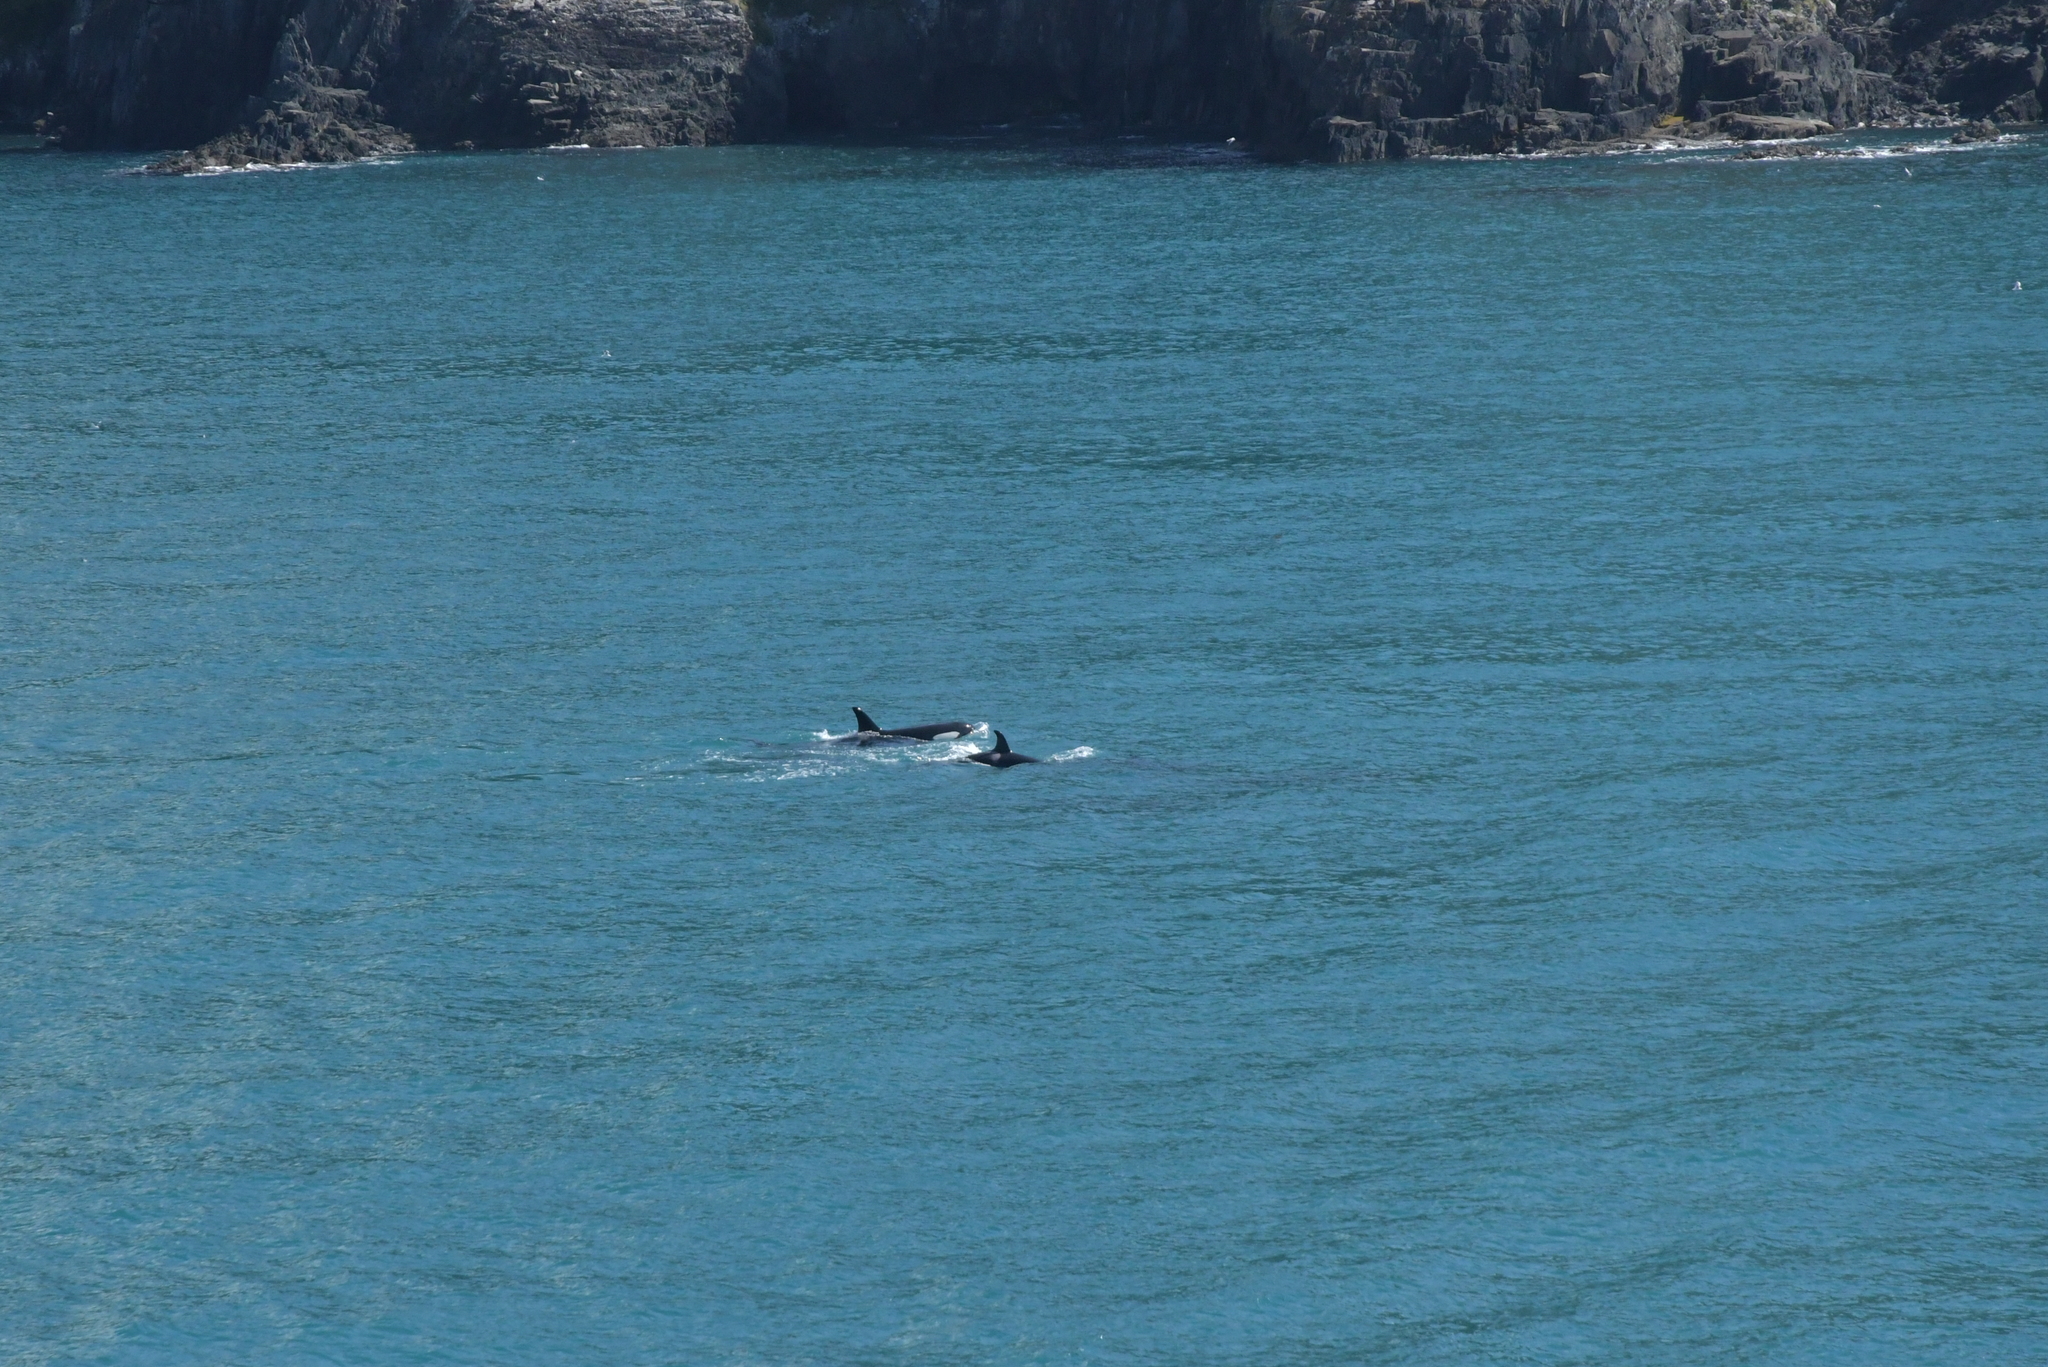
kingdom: Animalia
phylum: Chordata
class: Mammalia
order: Cetacea
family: Delphinidae
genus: Orcinus
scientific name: Orcinus orca
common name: Killer whale
